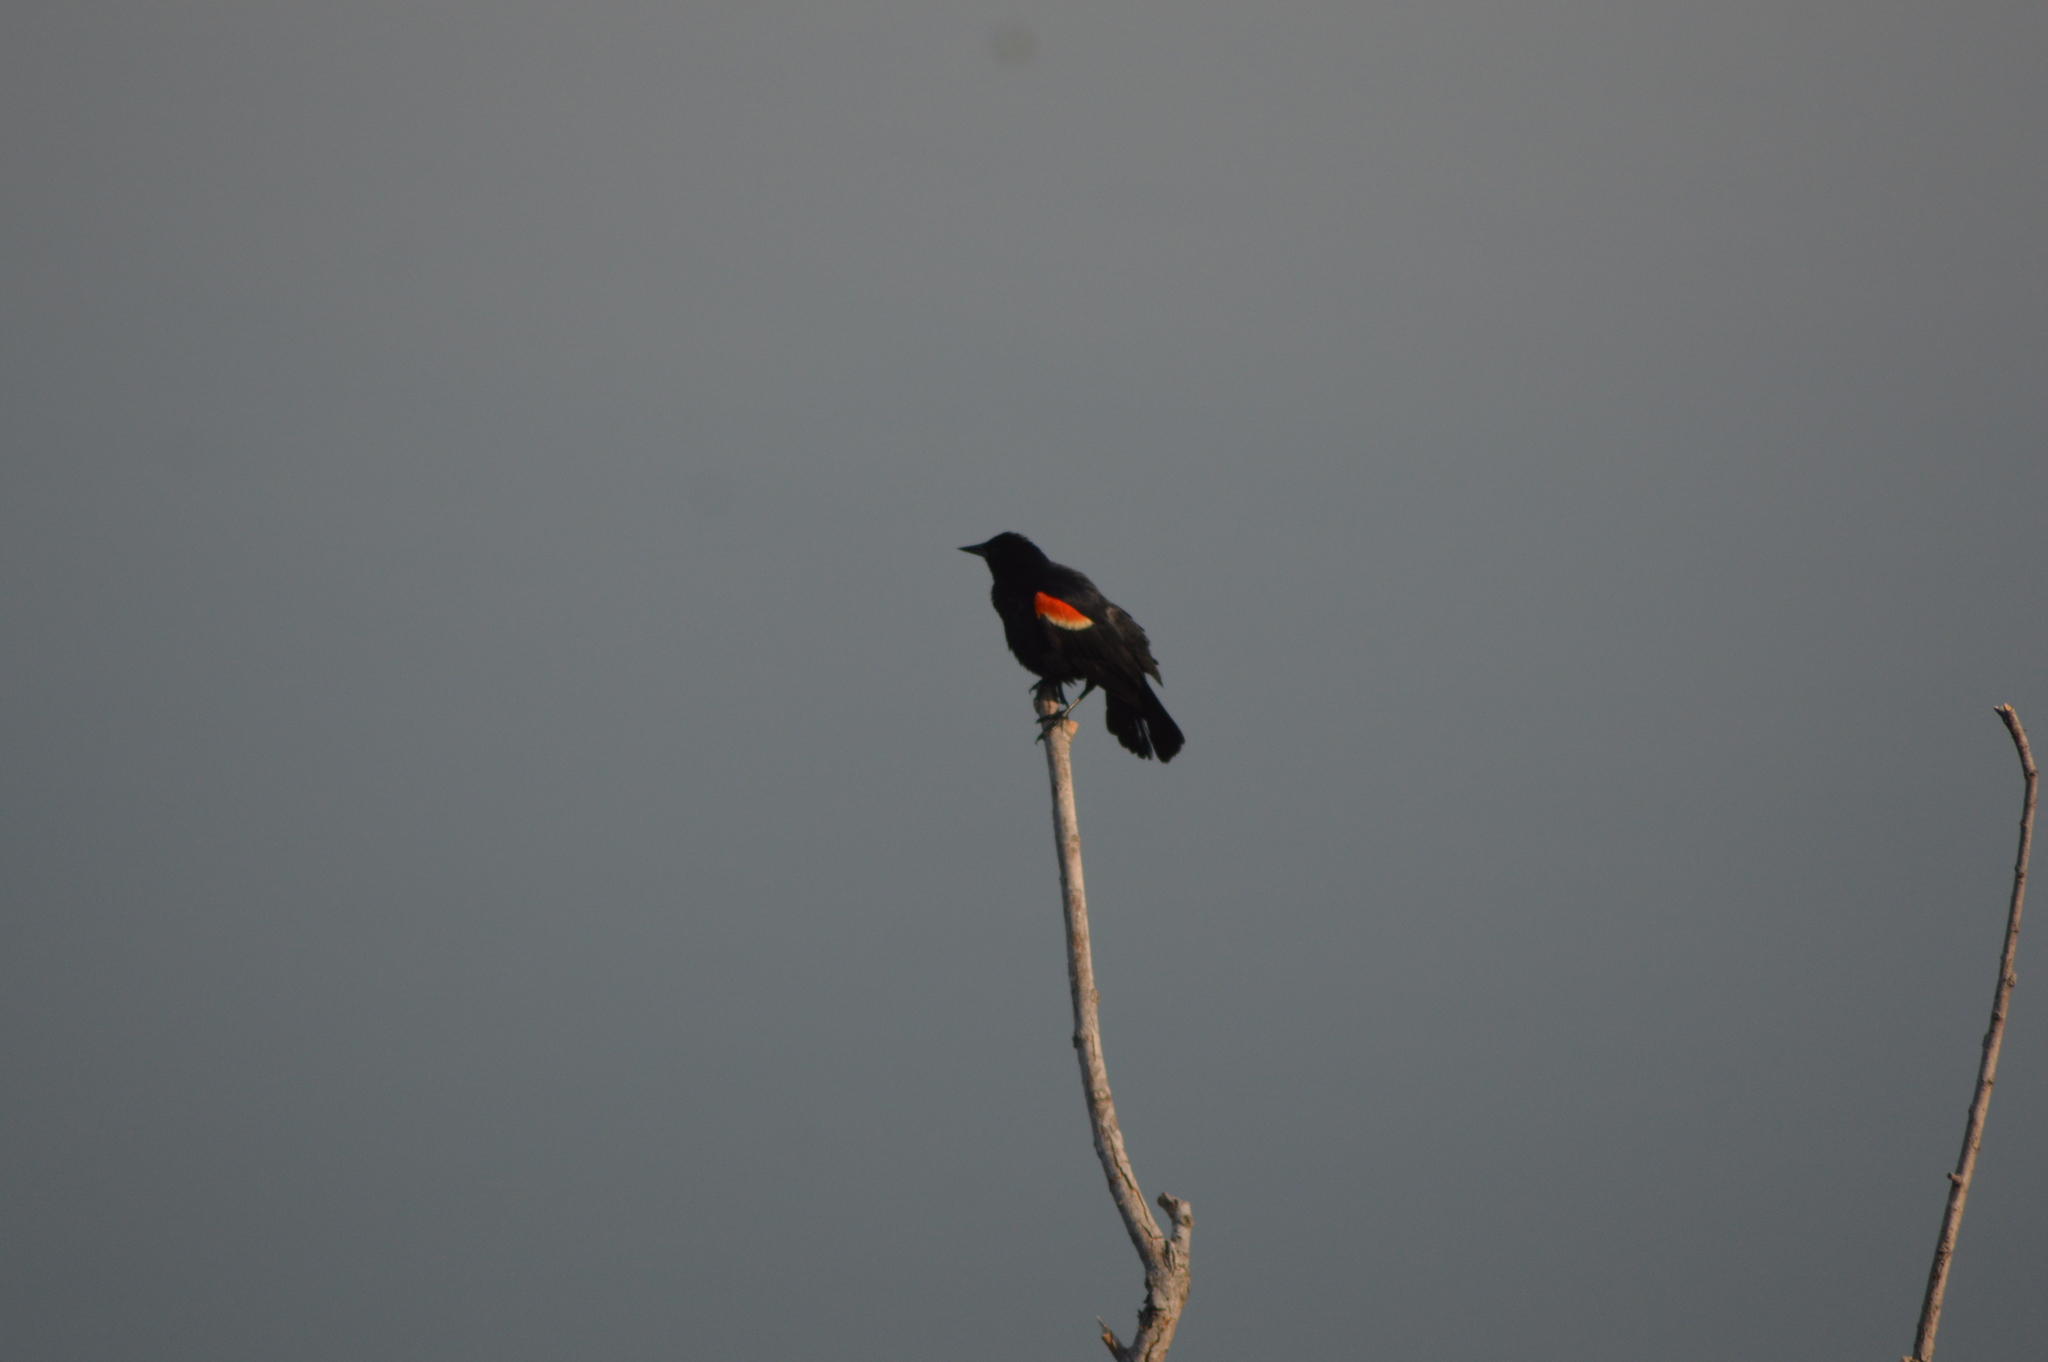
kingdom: Animalia
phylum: Chordata
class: Aves
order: Passeriformes
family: Icteridae
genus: Agelaius
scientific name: Agelaius phoeniceus
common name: Red-winged blackbird
